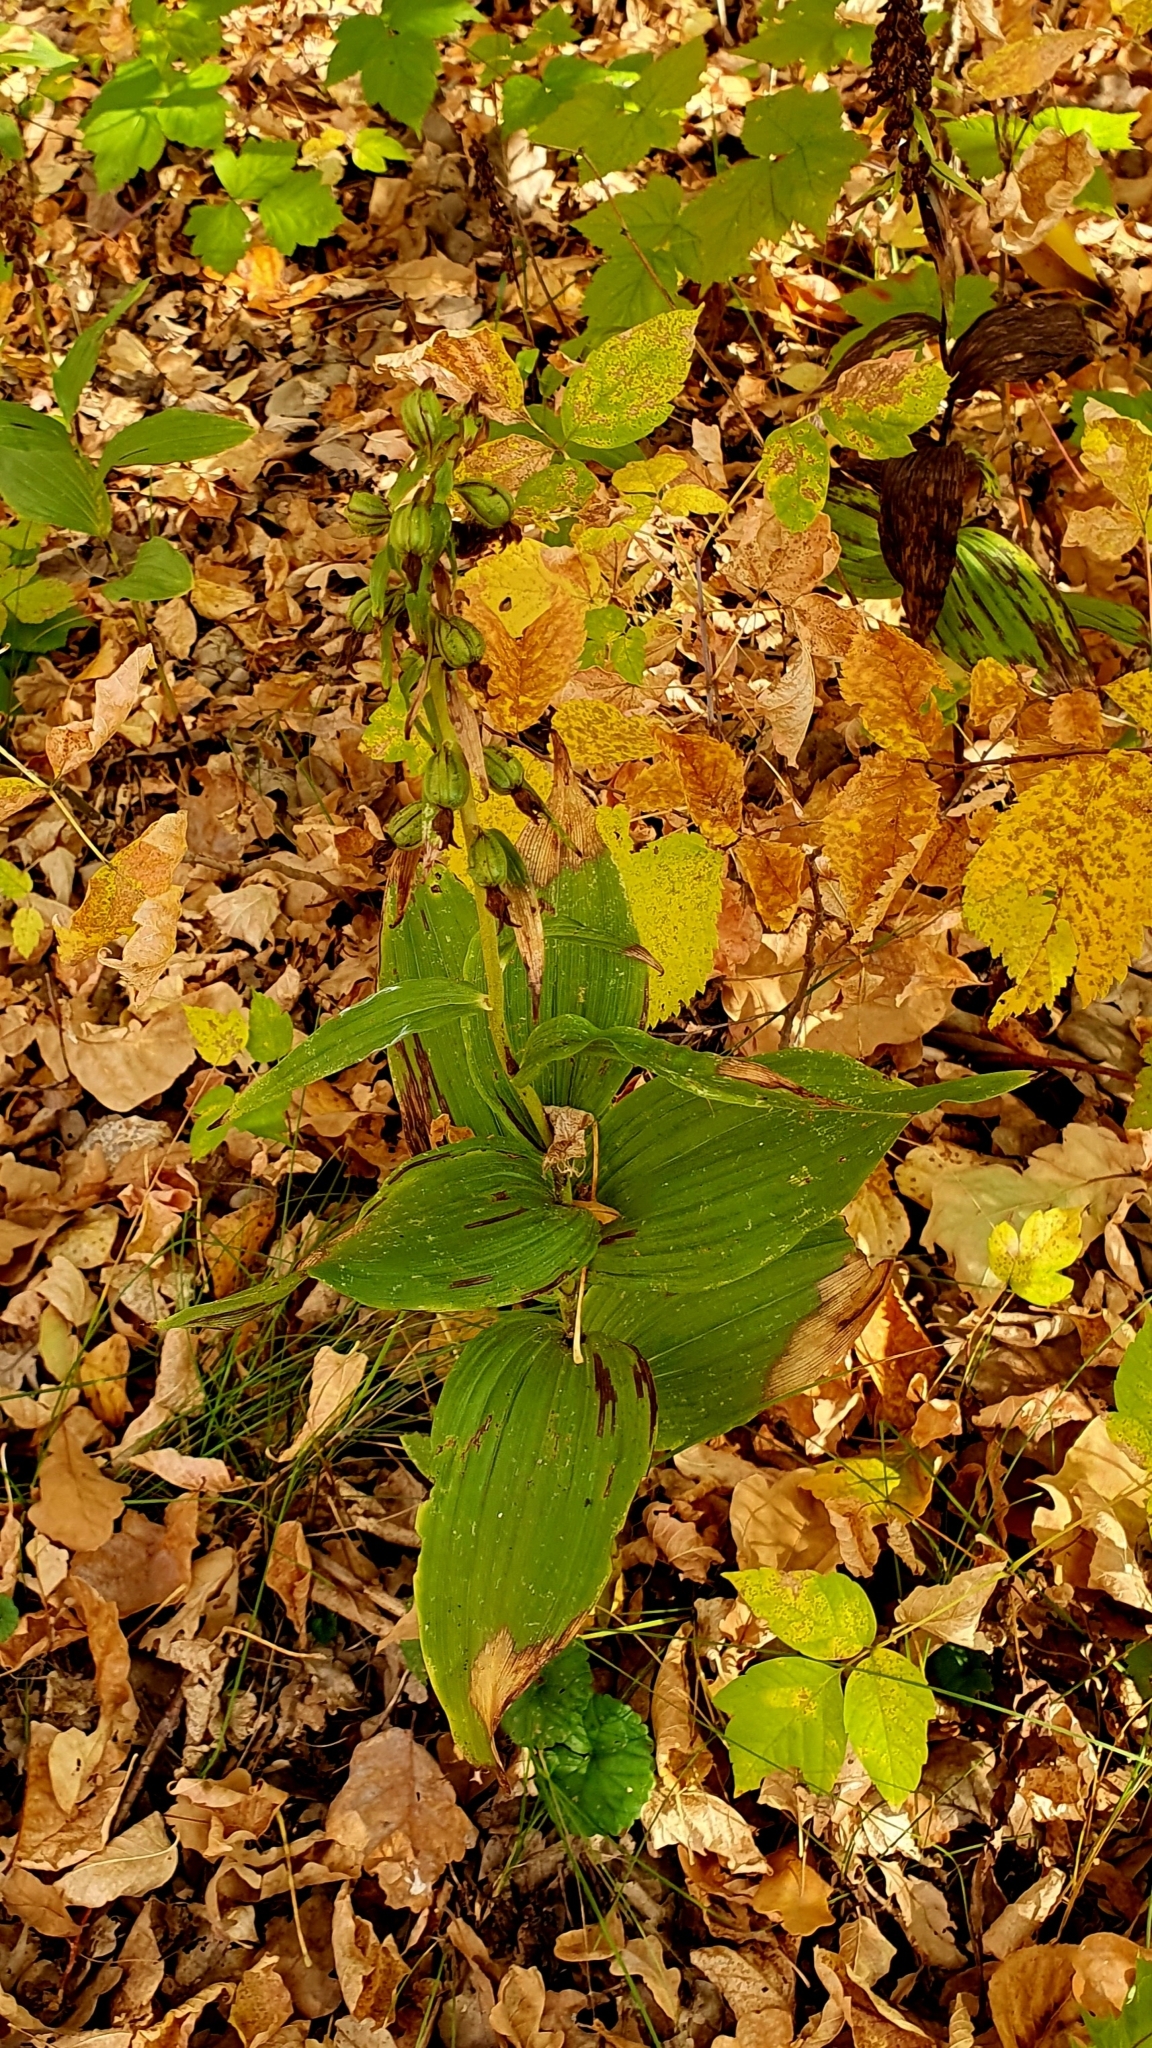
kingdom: Plantae
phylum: Tracheophyta
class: Liliopsida
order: Asparagales
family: Orchidaceae
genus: Epipactis
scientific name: Epipactis helleborine
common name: Broad-leaved helleborine
